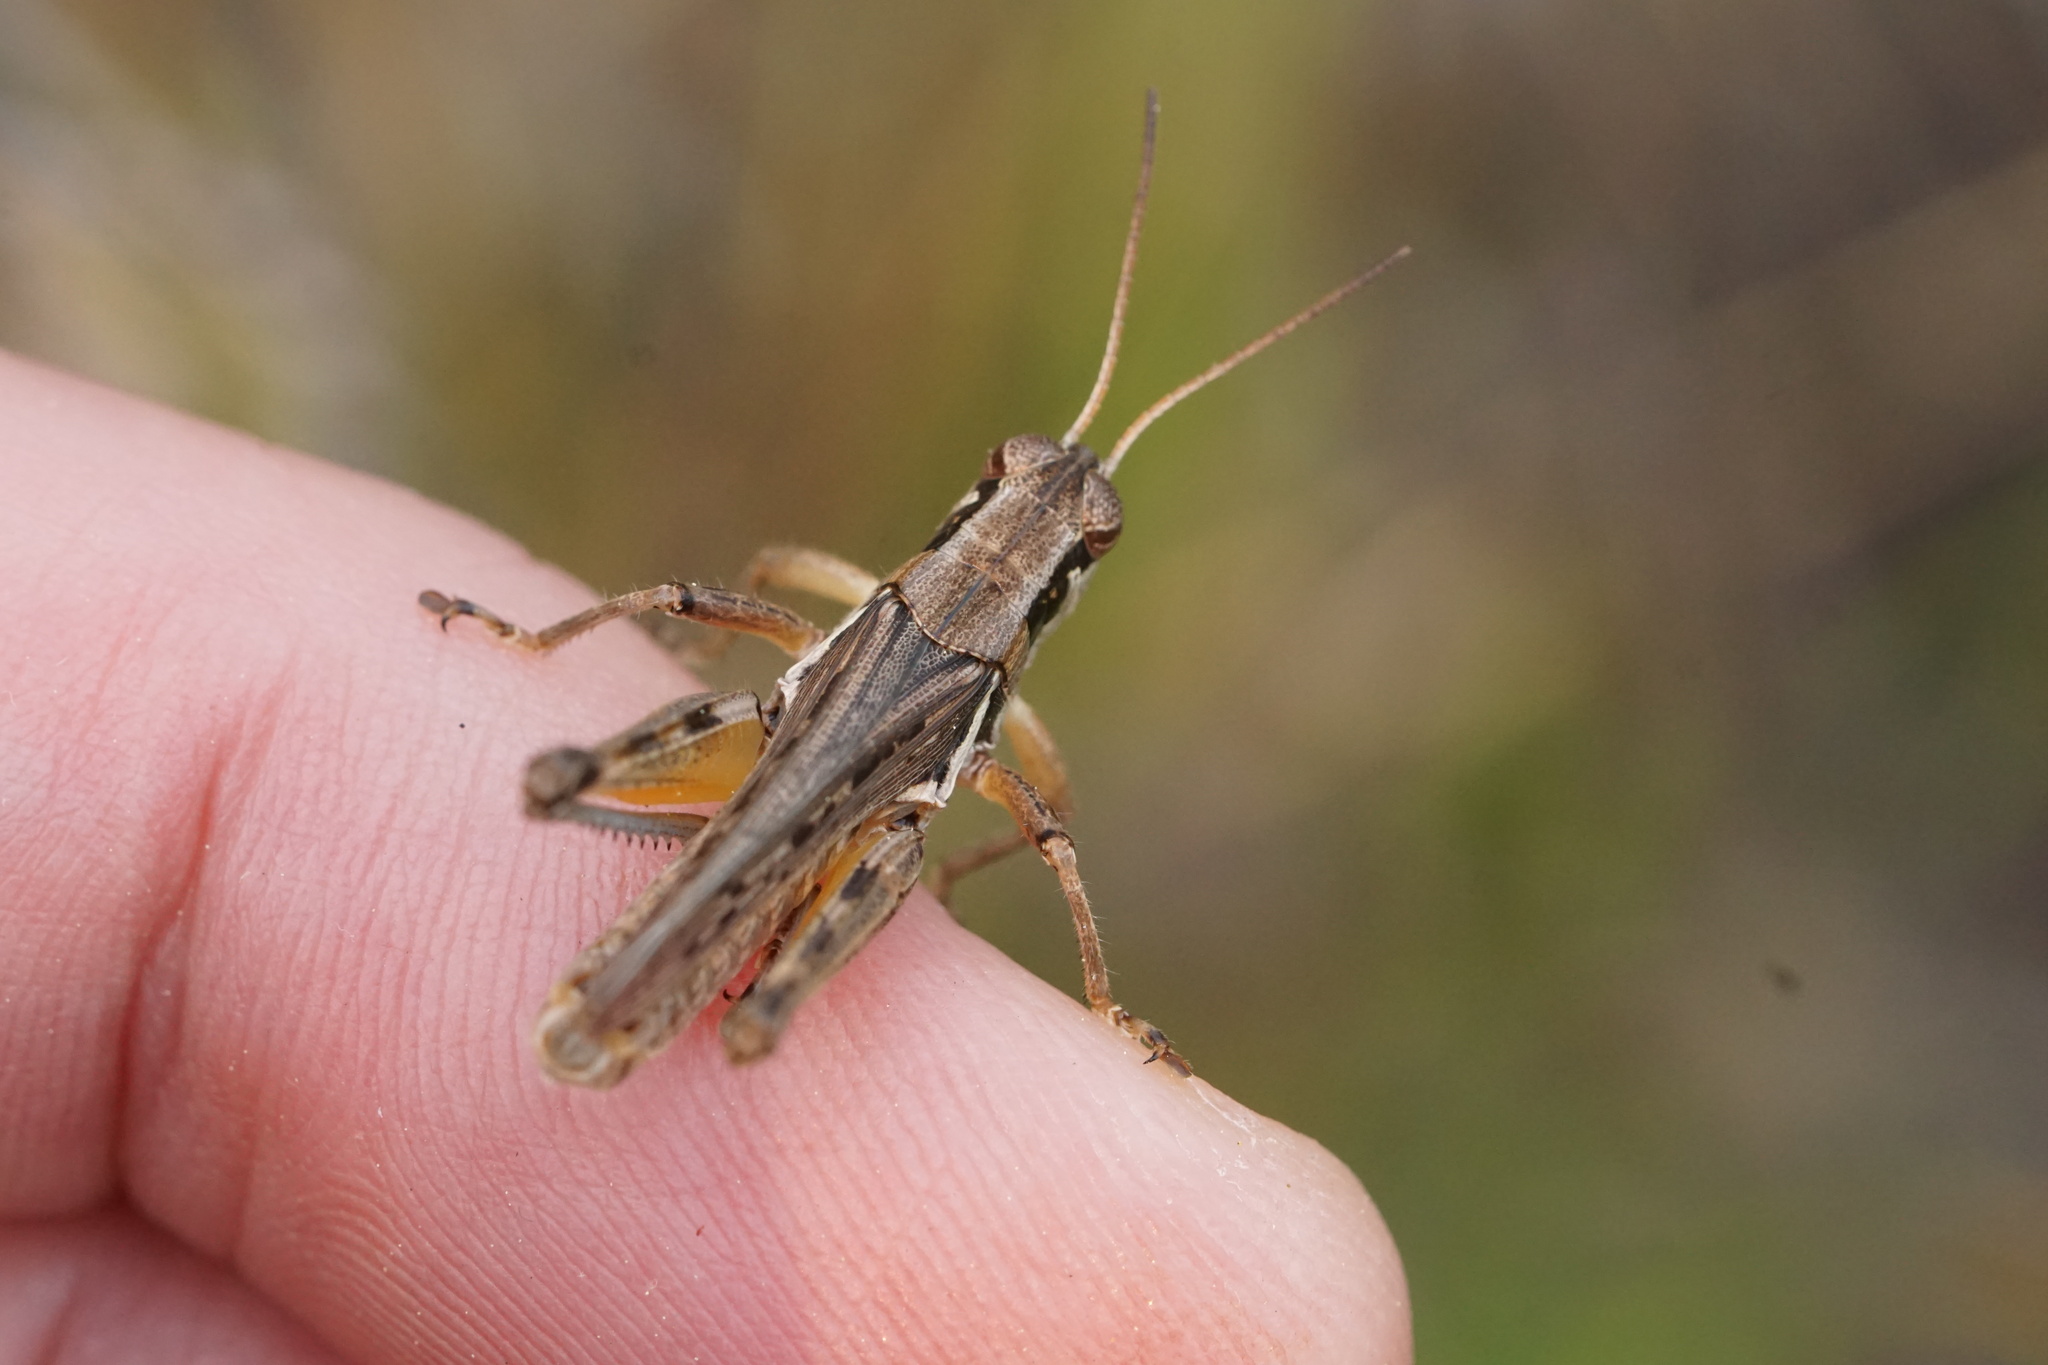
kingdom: Animalia
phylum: Arthropoda
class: Insecta
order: Orthoptera
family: Acrididae
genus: Melanoplus
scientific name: Melanoplus confusus
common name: Little pasture locust
